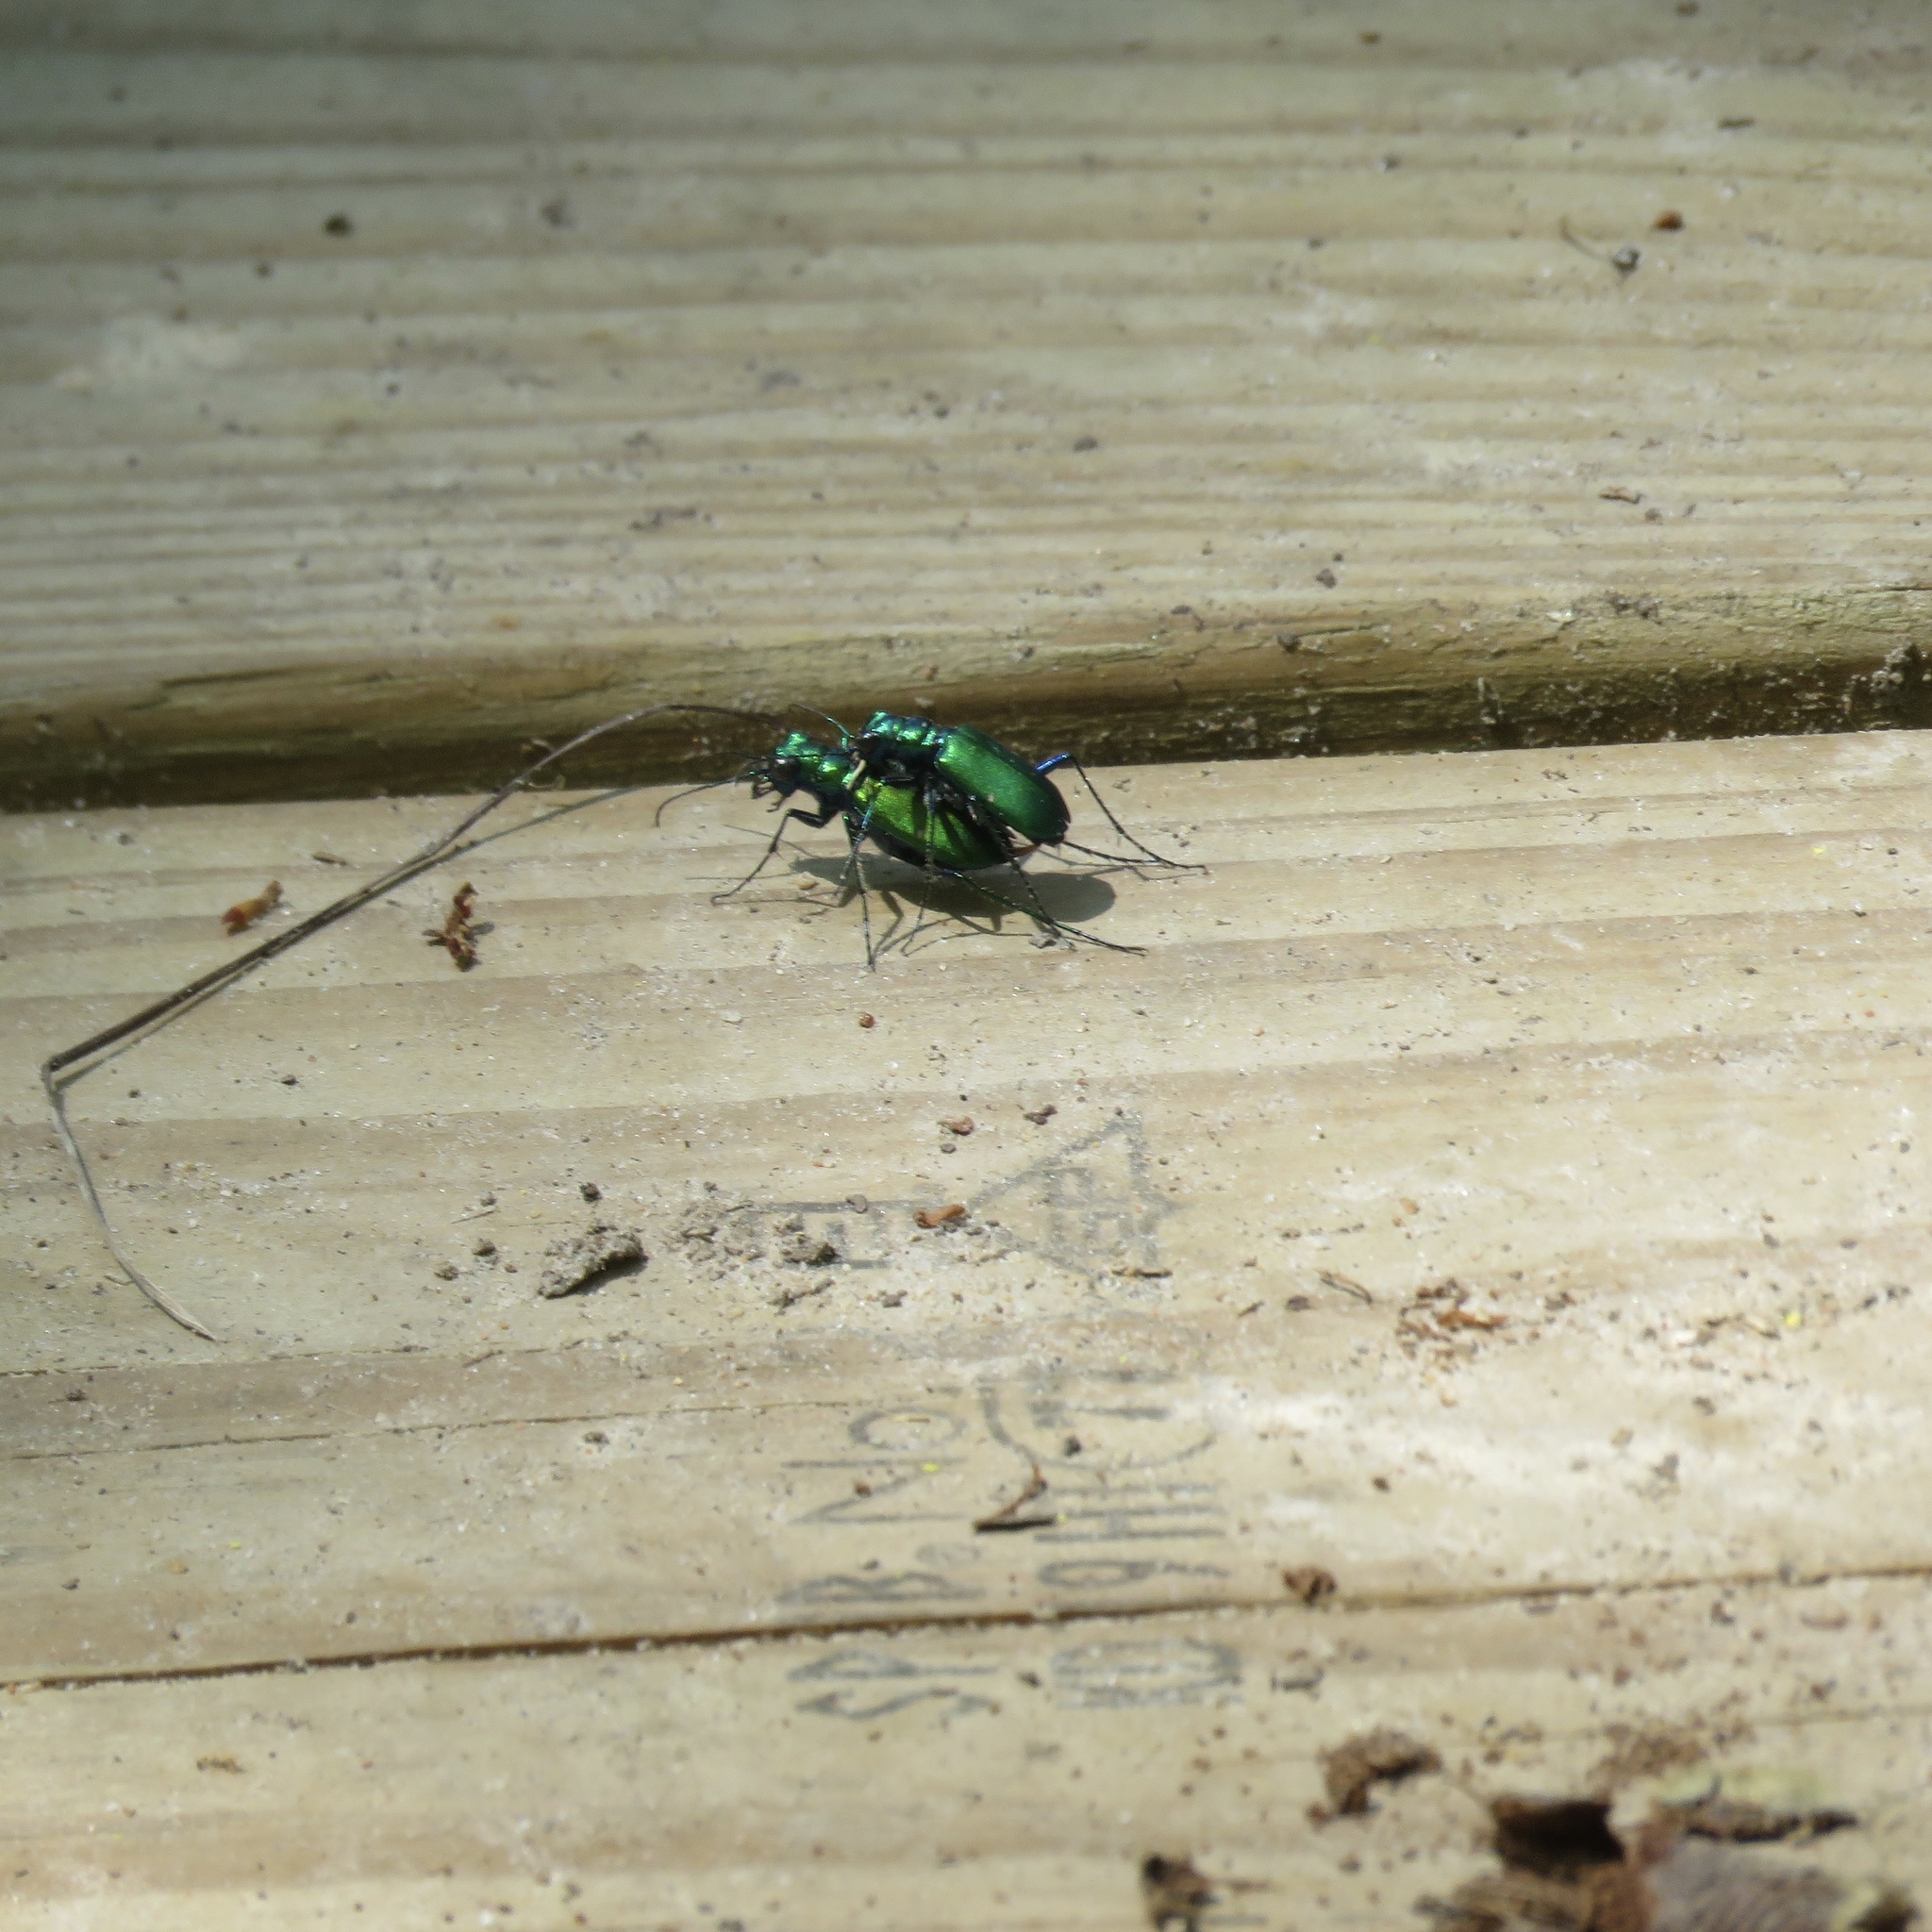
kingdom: Animalia
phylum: Arthropoda
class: Insecta
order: Coleoptera
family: Carabidae
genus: Cicindela
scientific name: Cicindela sexguttata
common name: Six-spotted tiger beetle
